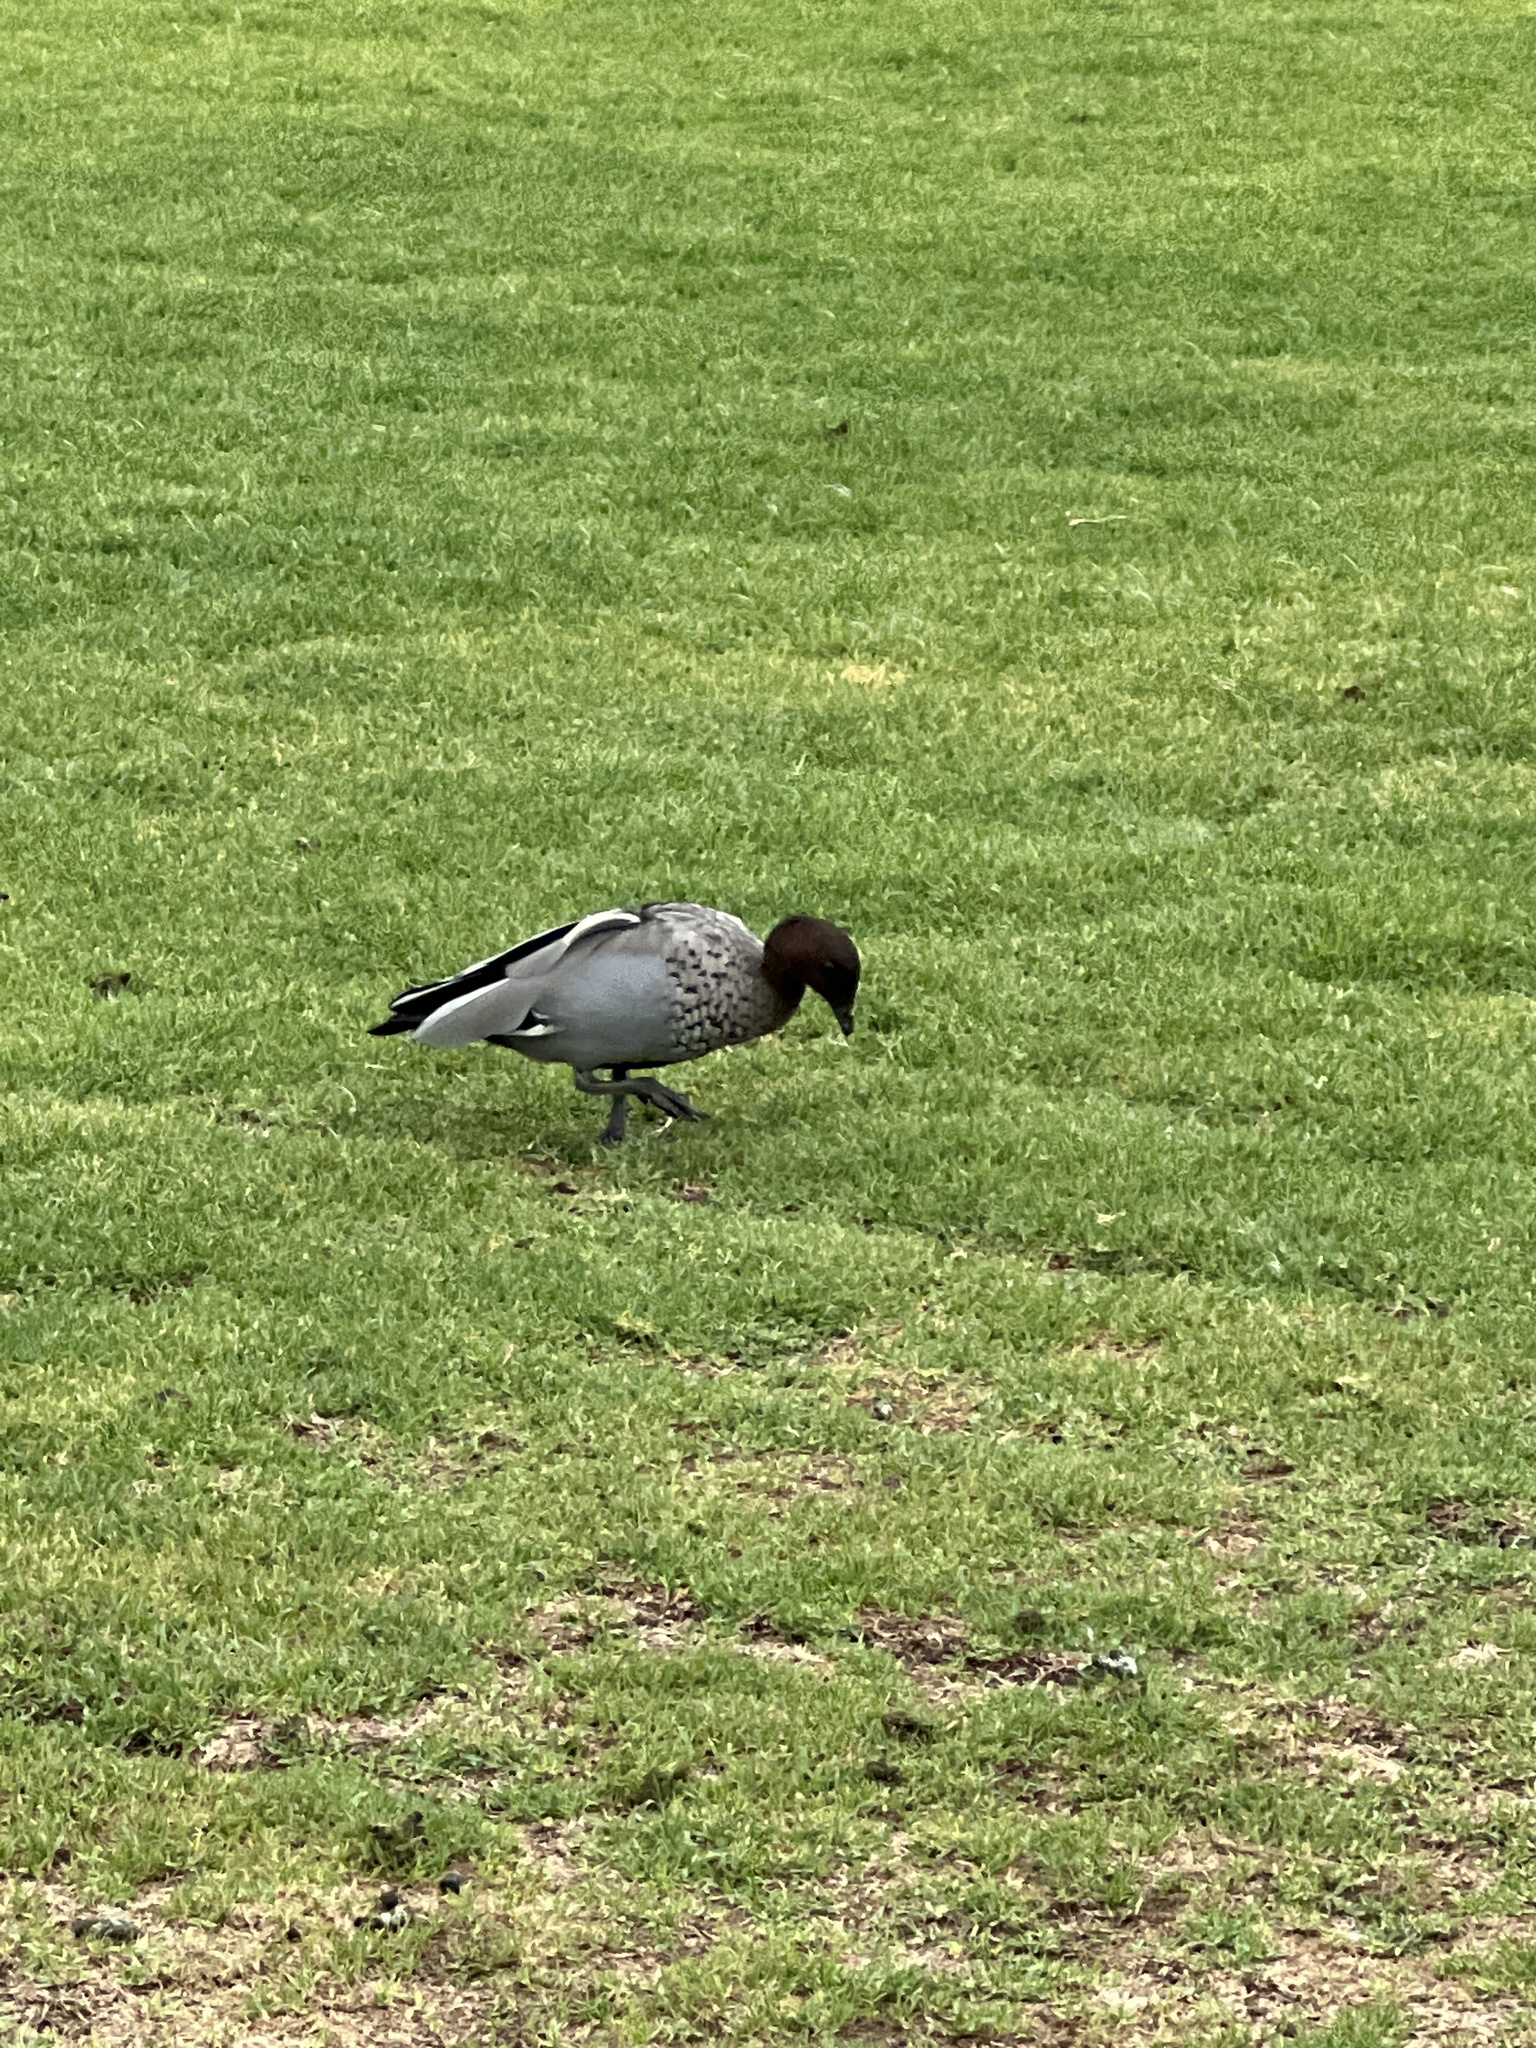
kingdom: Animalia
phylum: Chordata
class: Aves
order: Anseriformes
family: Anatidae
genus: Chenonetta
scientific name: Chenonetta jubata
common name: Maned duck
